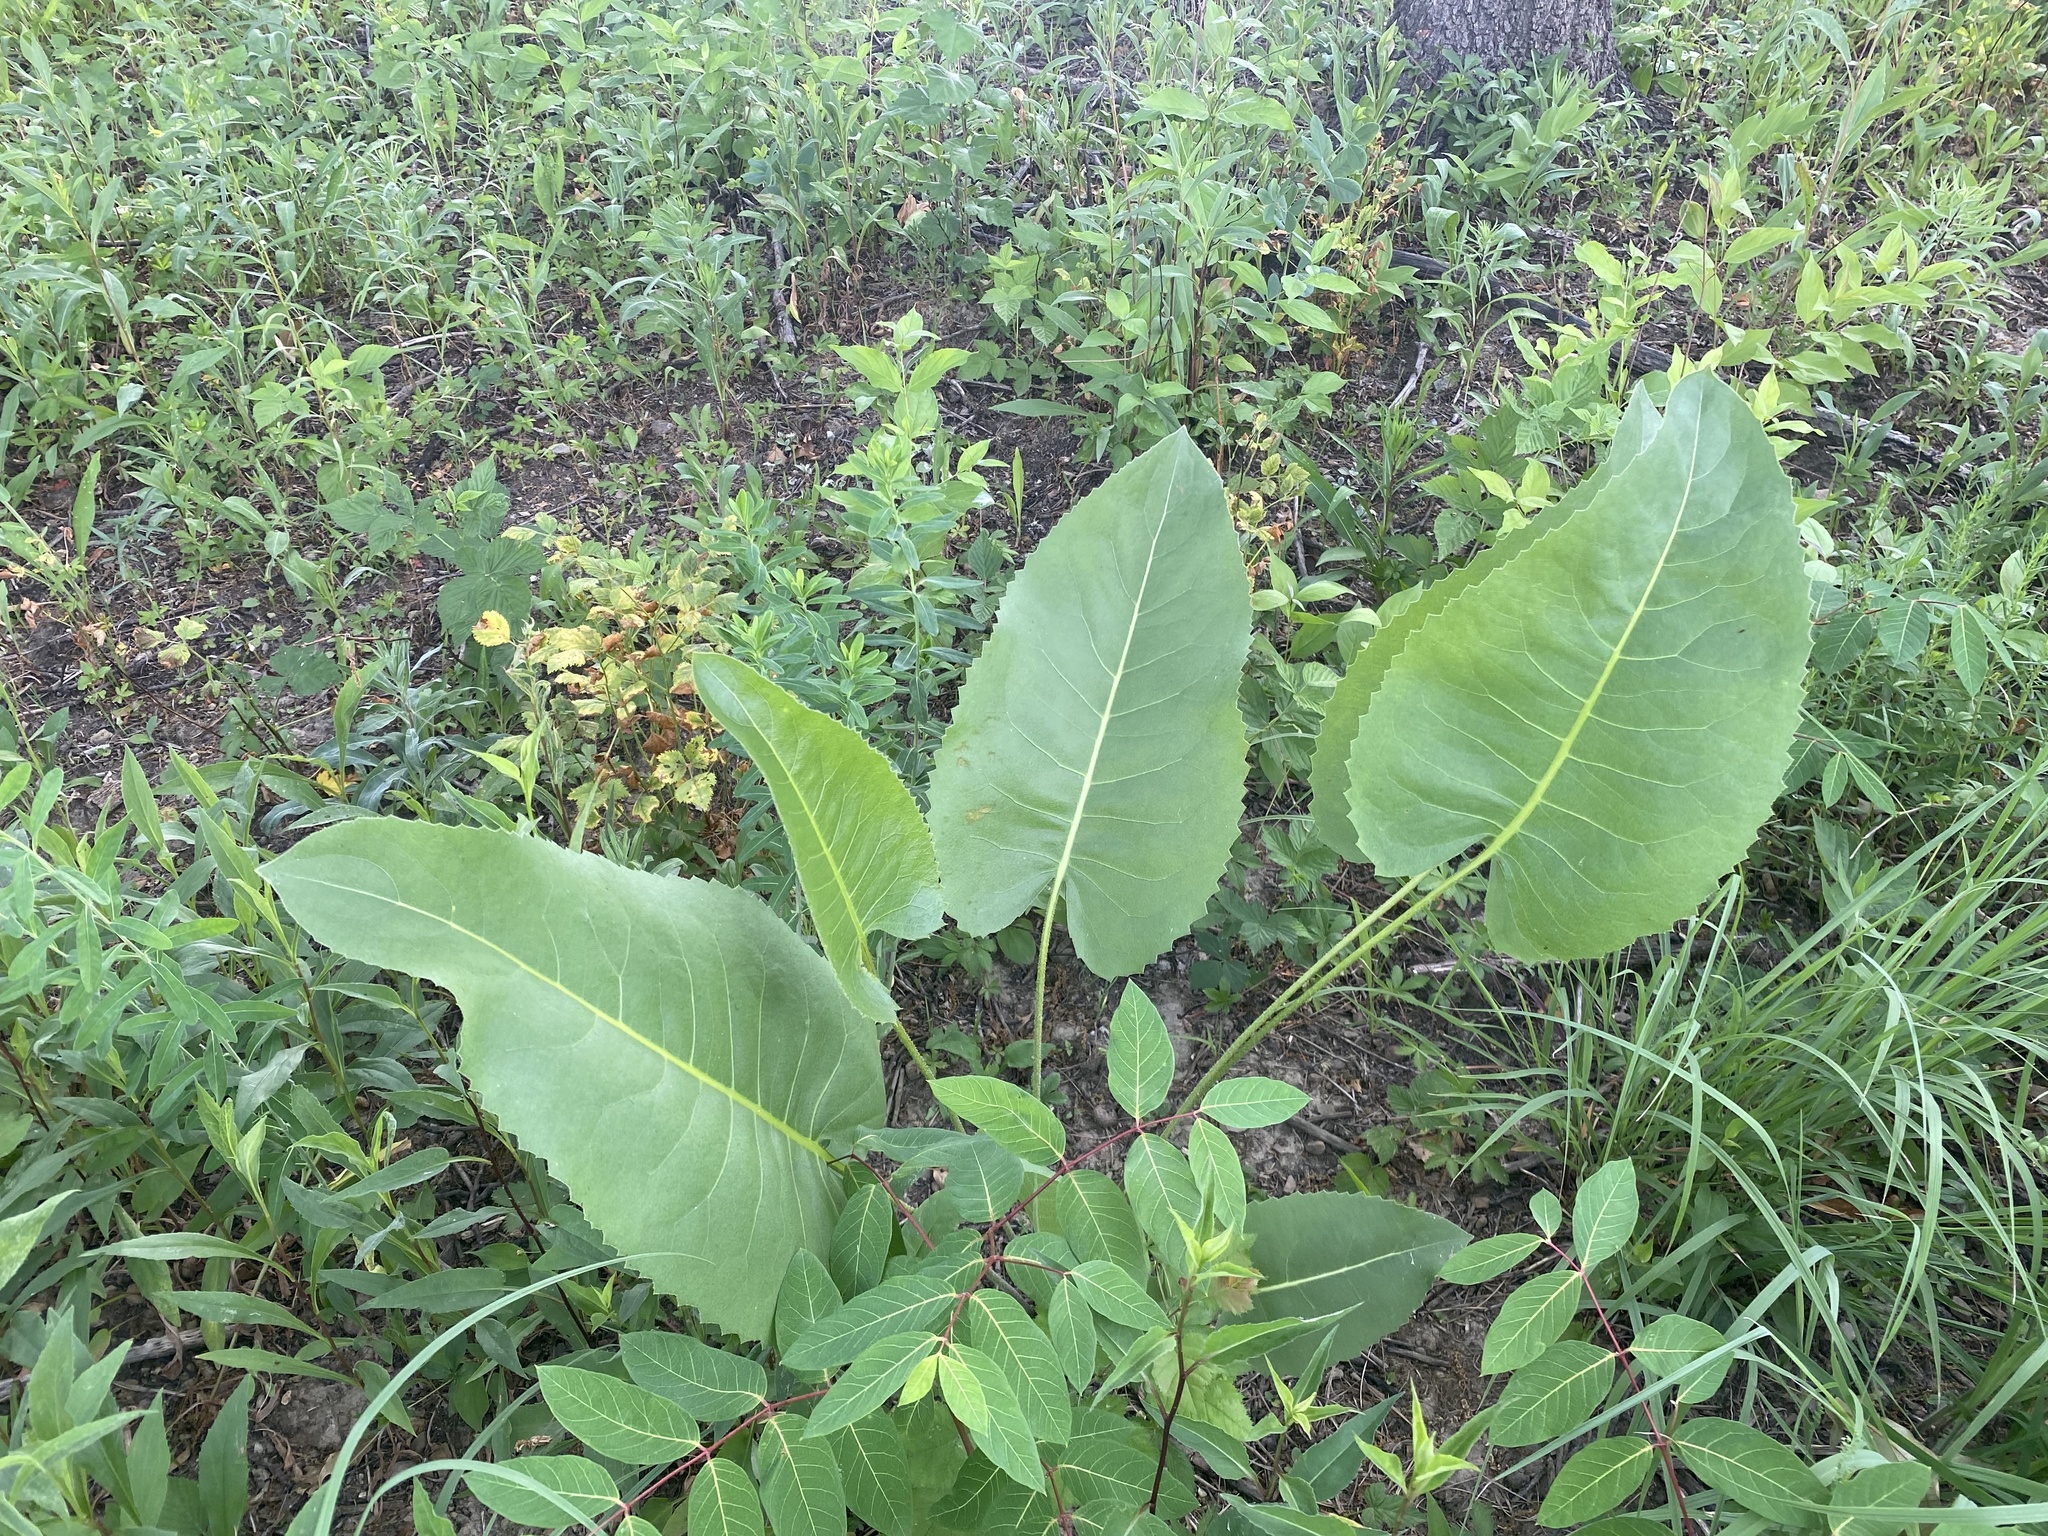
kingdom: Plantae
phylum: Tracheophyta
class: Magnoliopsida
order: Asterales
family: Asteraceae
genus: Silphium
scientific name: Silphium terebinthinaceum
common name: Basal-leaf rosinweed
